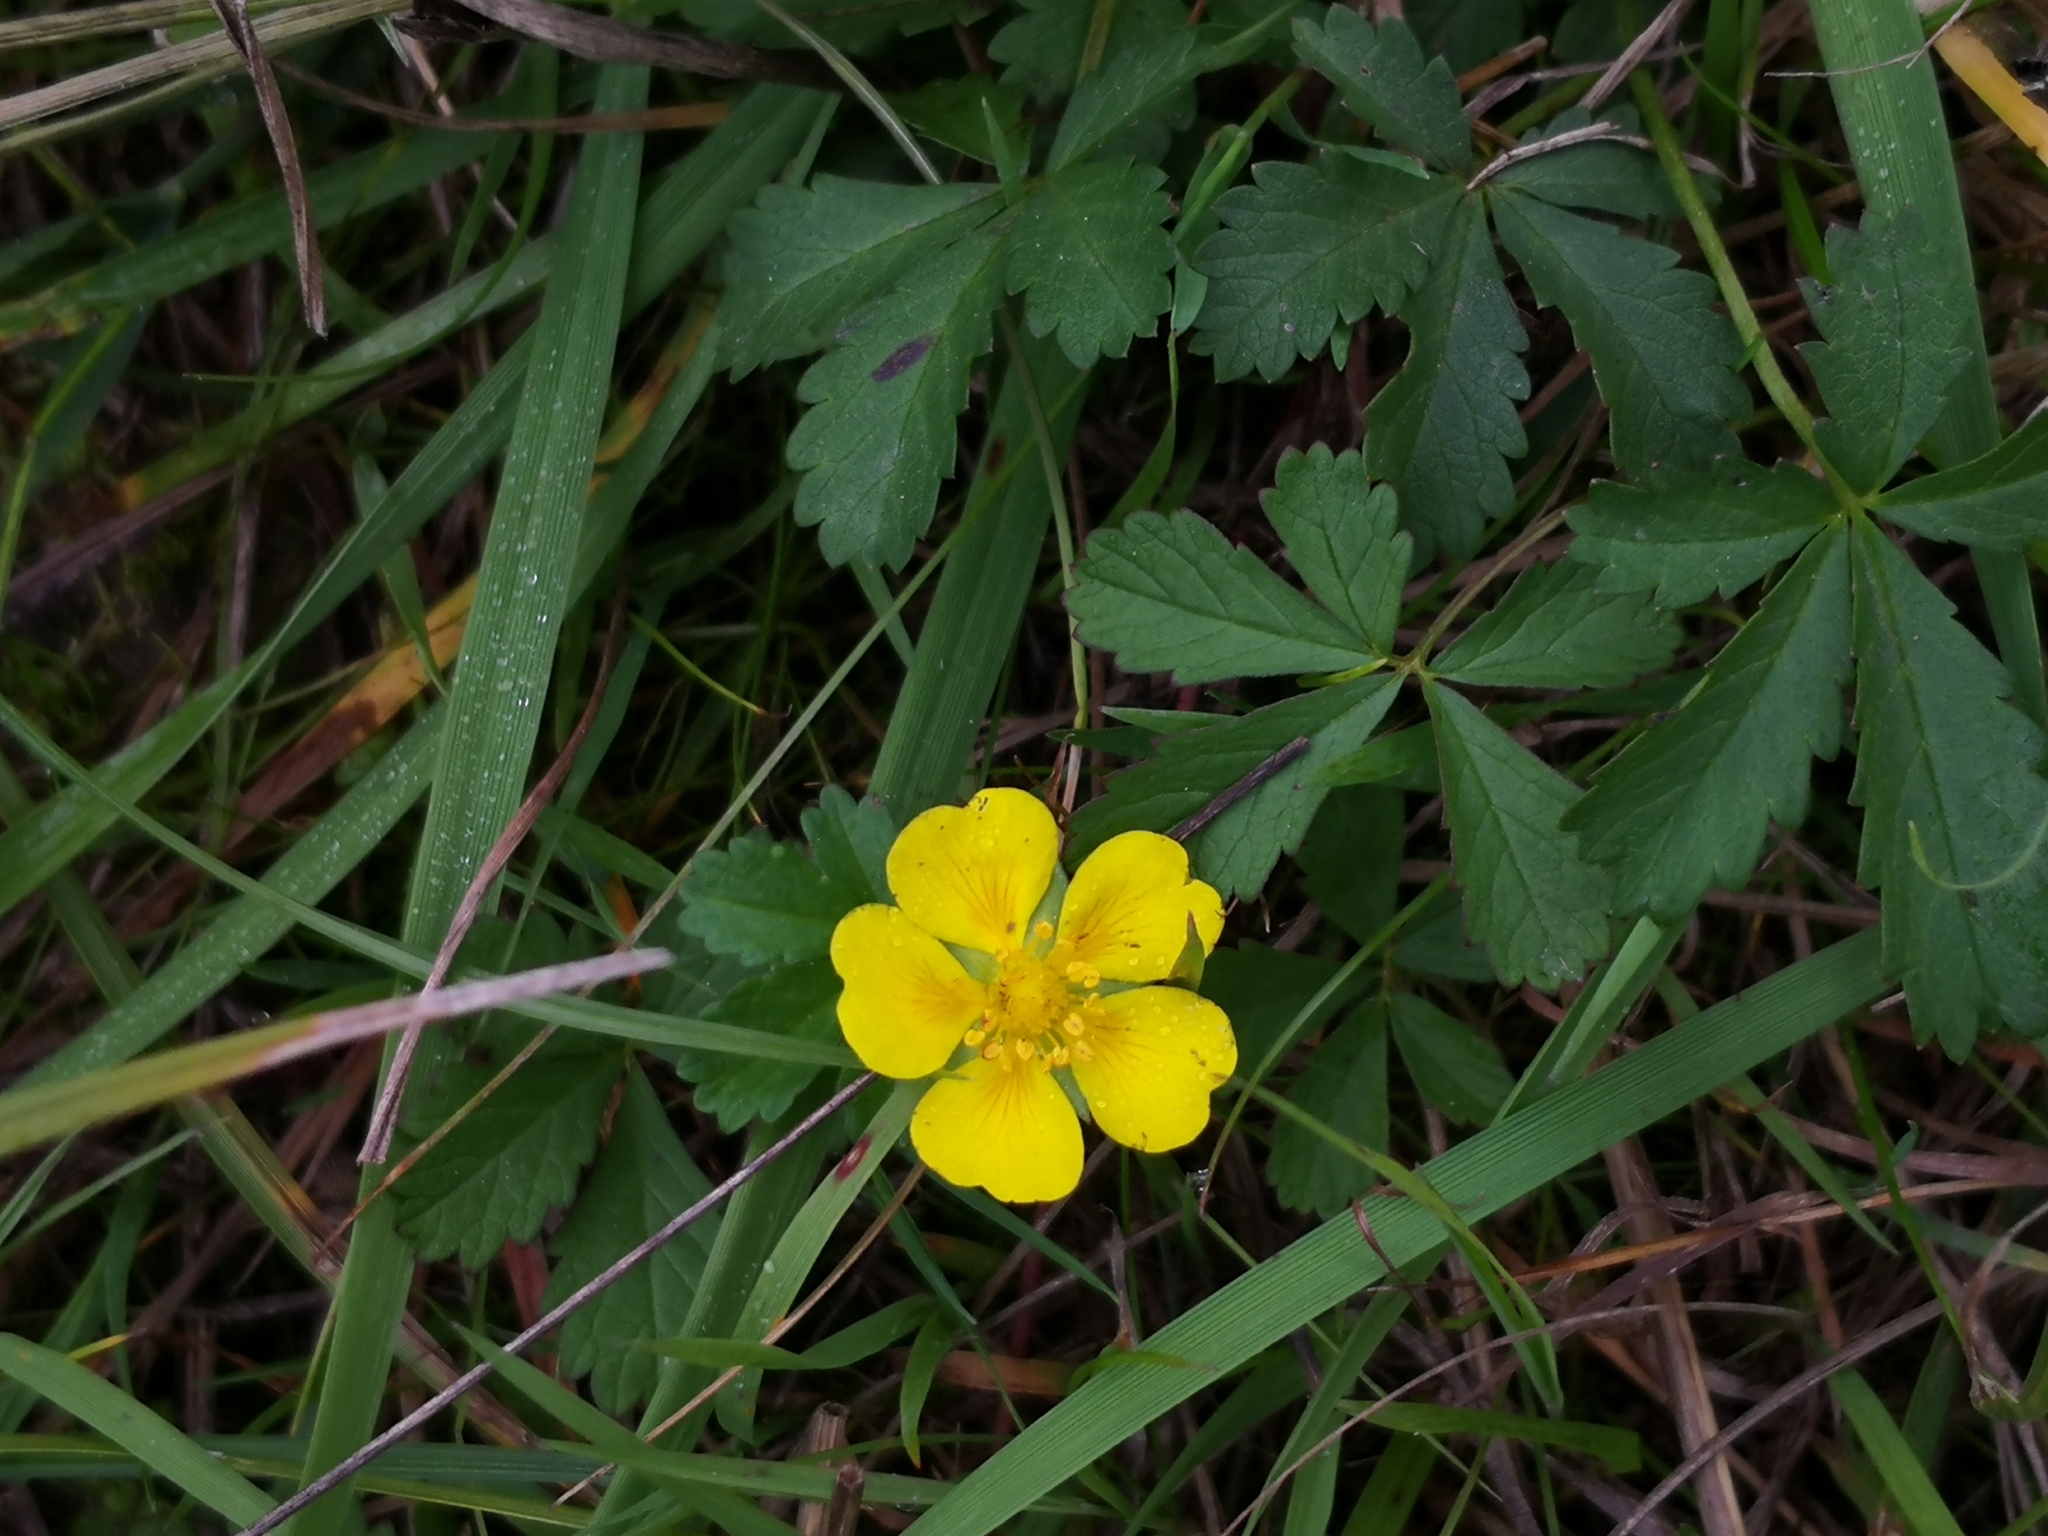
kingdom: Plantae
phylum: Tracheophyta
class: Magnoliopsida
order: Rosales
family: Rosaceae
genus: Potentilla
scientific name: Potentilla reptans
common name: Creeping cinquefoil
